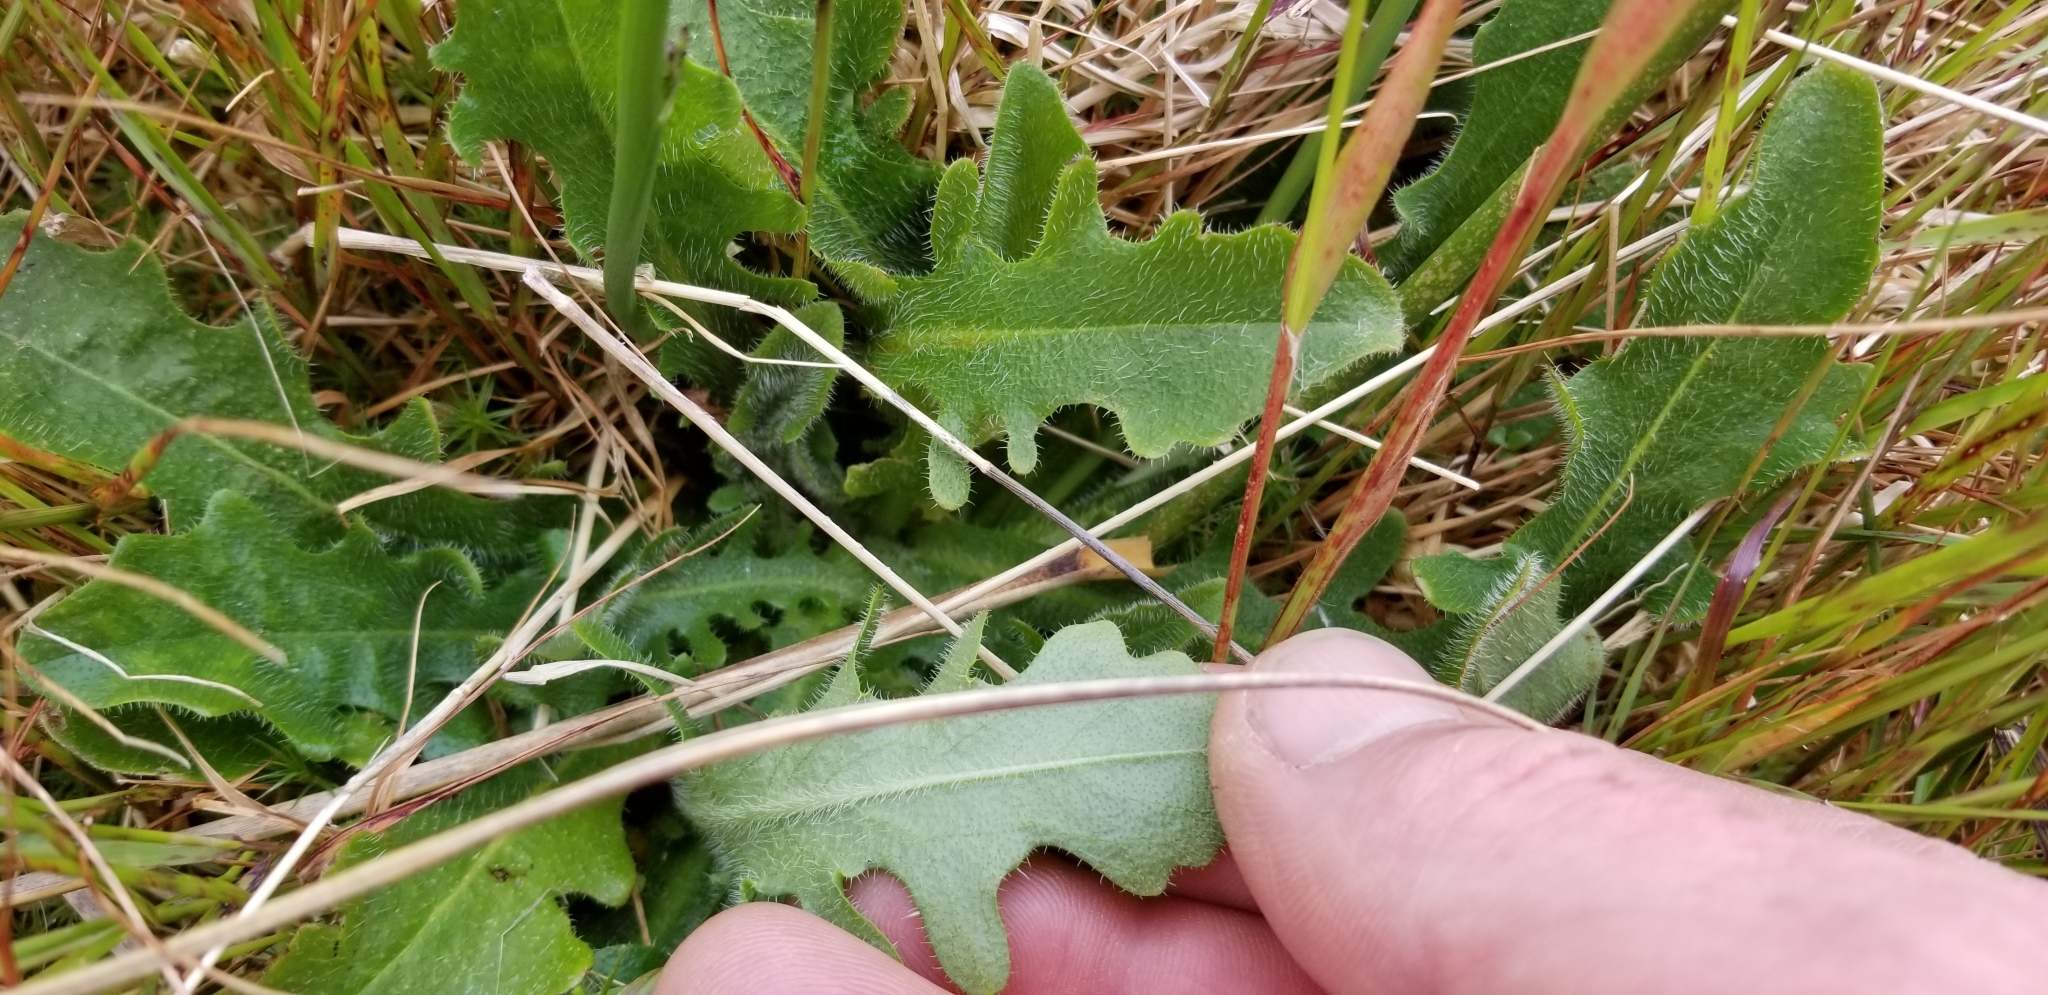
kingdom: Plantae
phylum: Tracheophyta
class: Magnoliopsida
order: Asterales
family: Asteraceae
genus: Hypochaeris
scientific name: Hypochaeris radicata
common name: Flatweed
